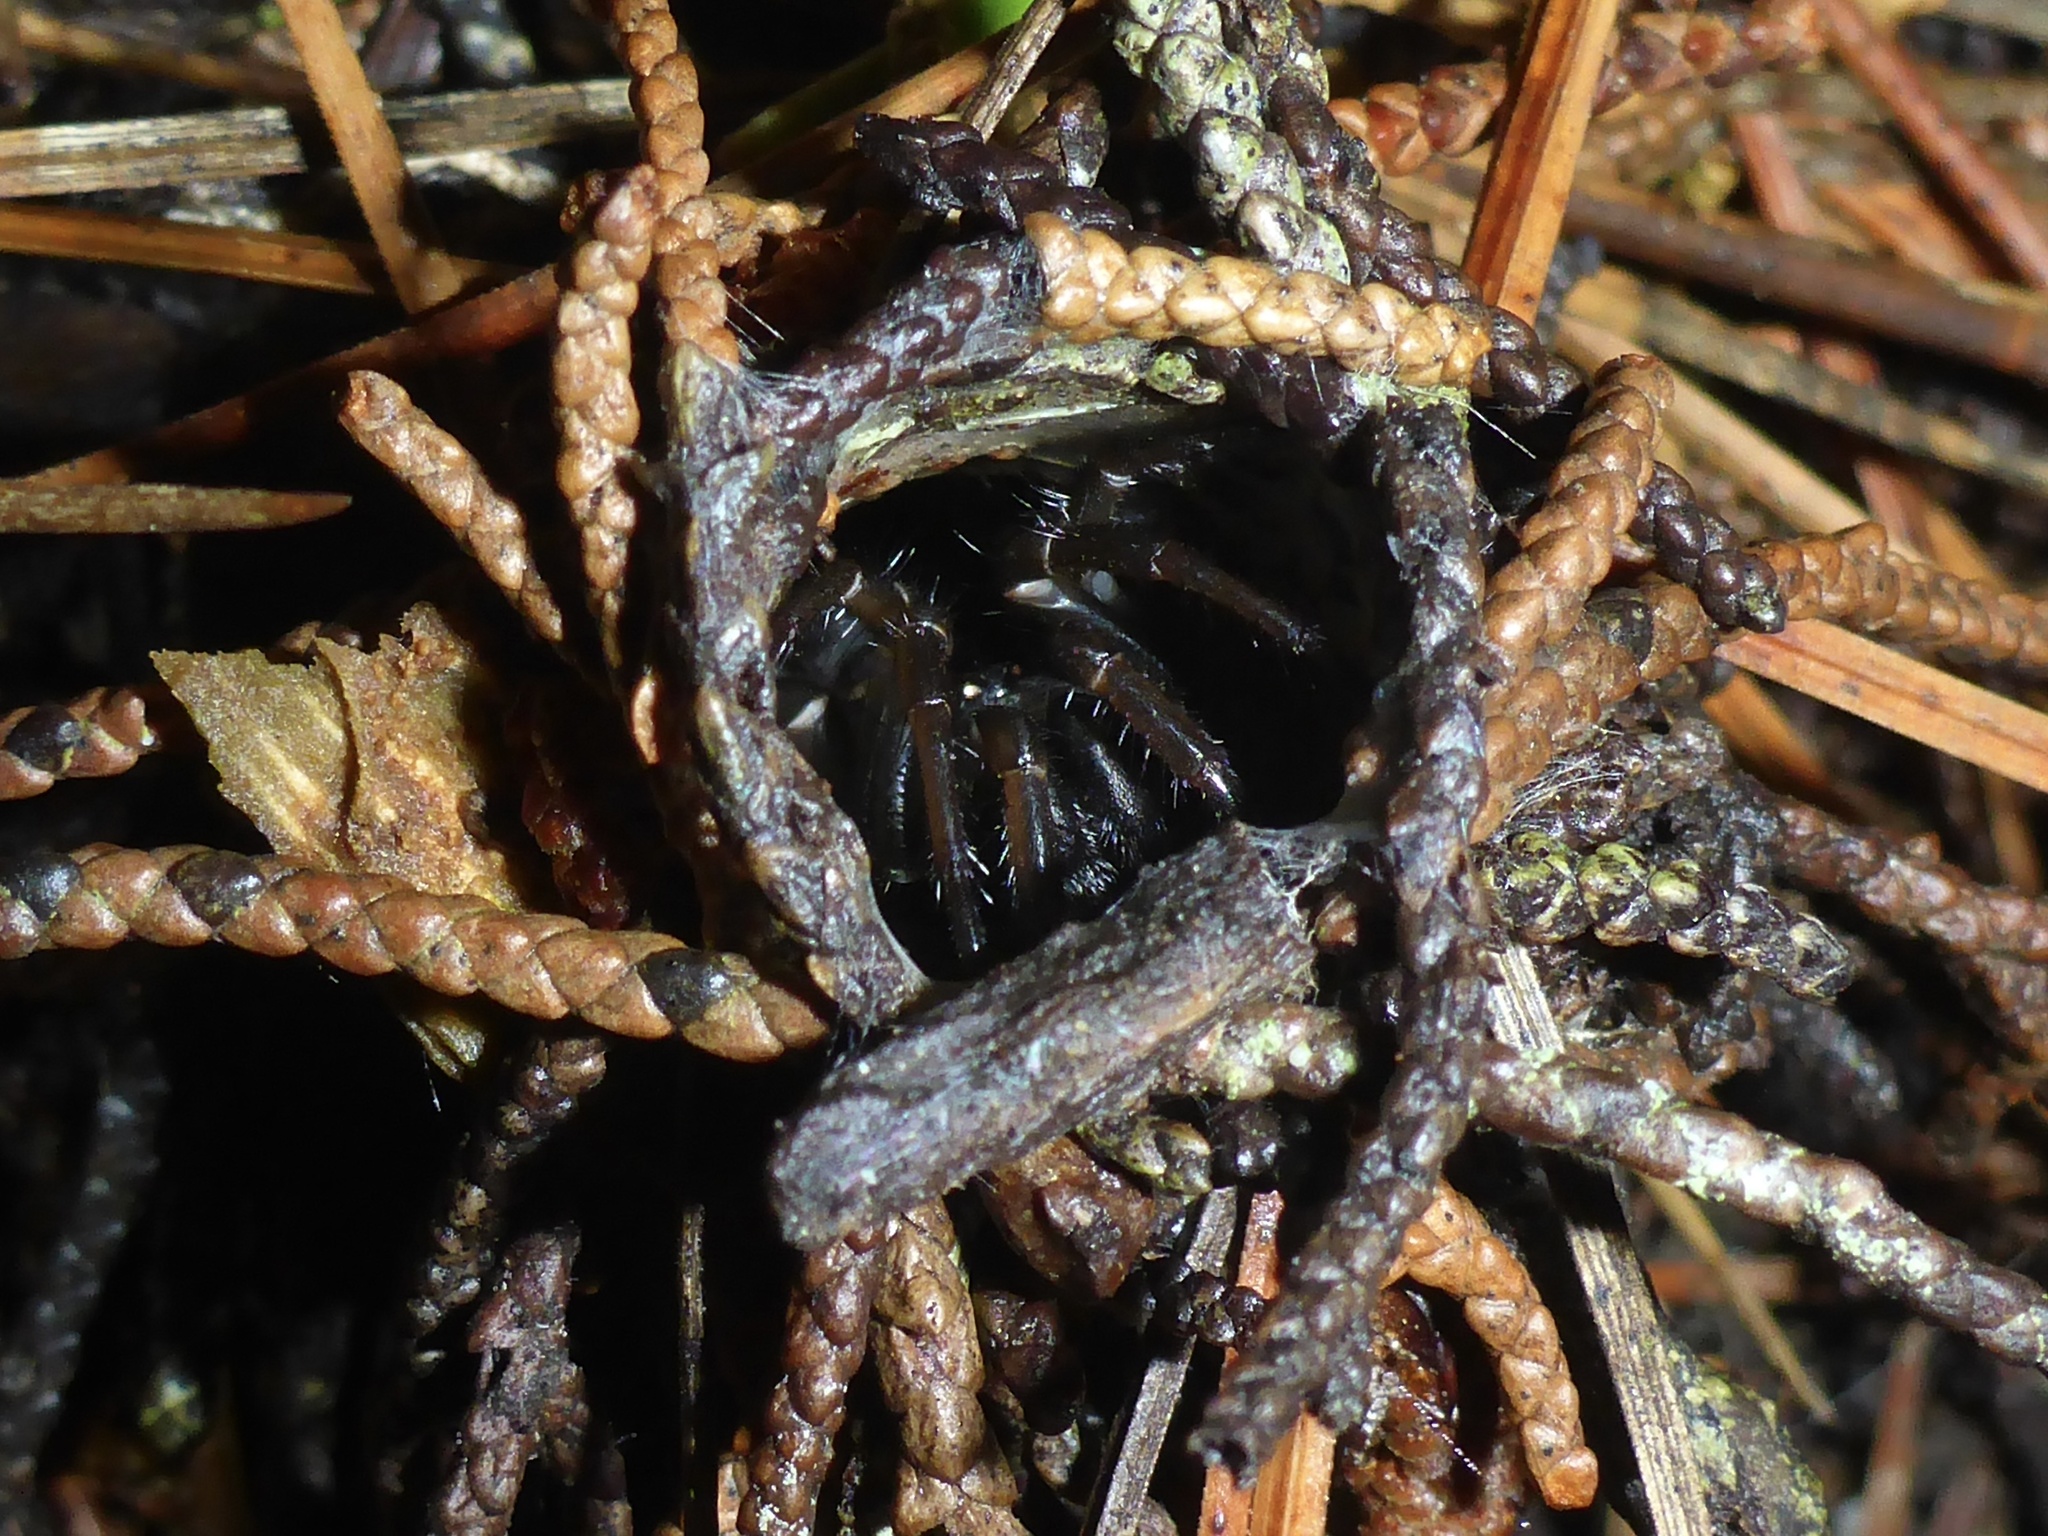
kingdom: Animalia
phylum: Arthropoda
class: Arachnida
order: Araneae
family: Antrodiaetidae
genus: Atypoides
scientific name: Atypoides riversi
